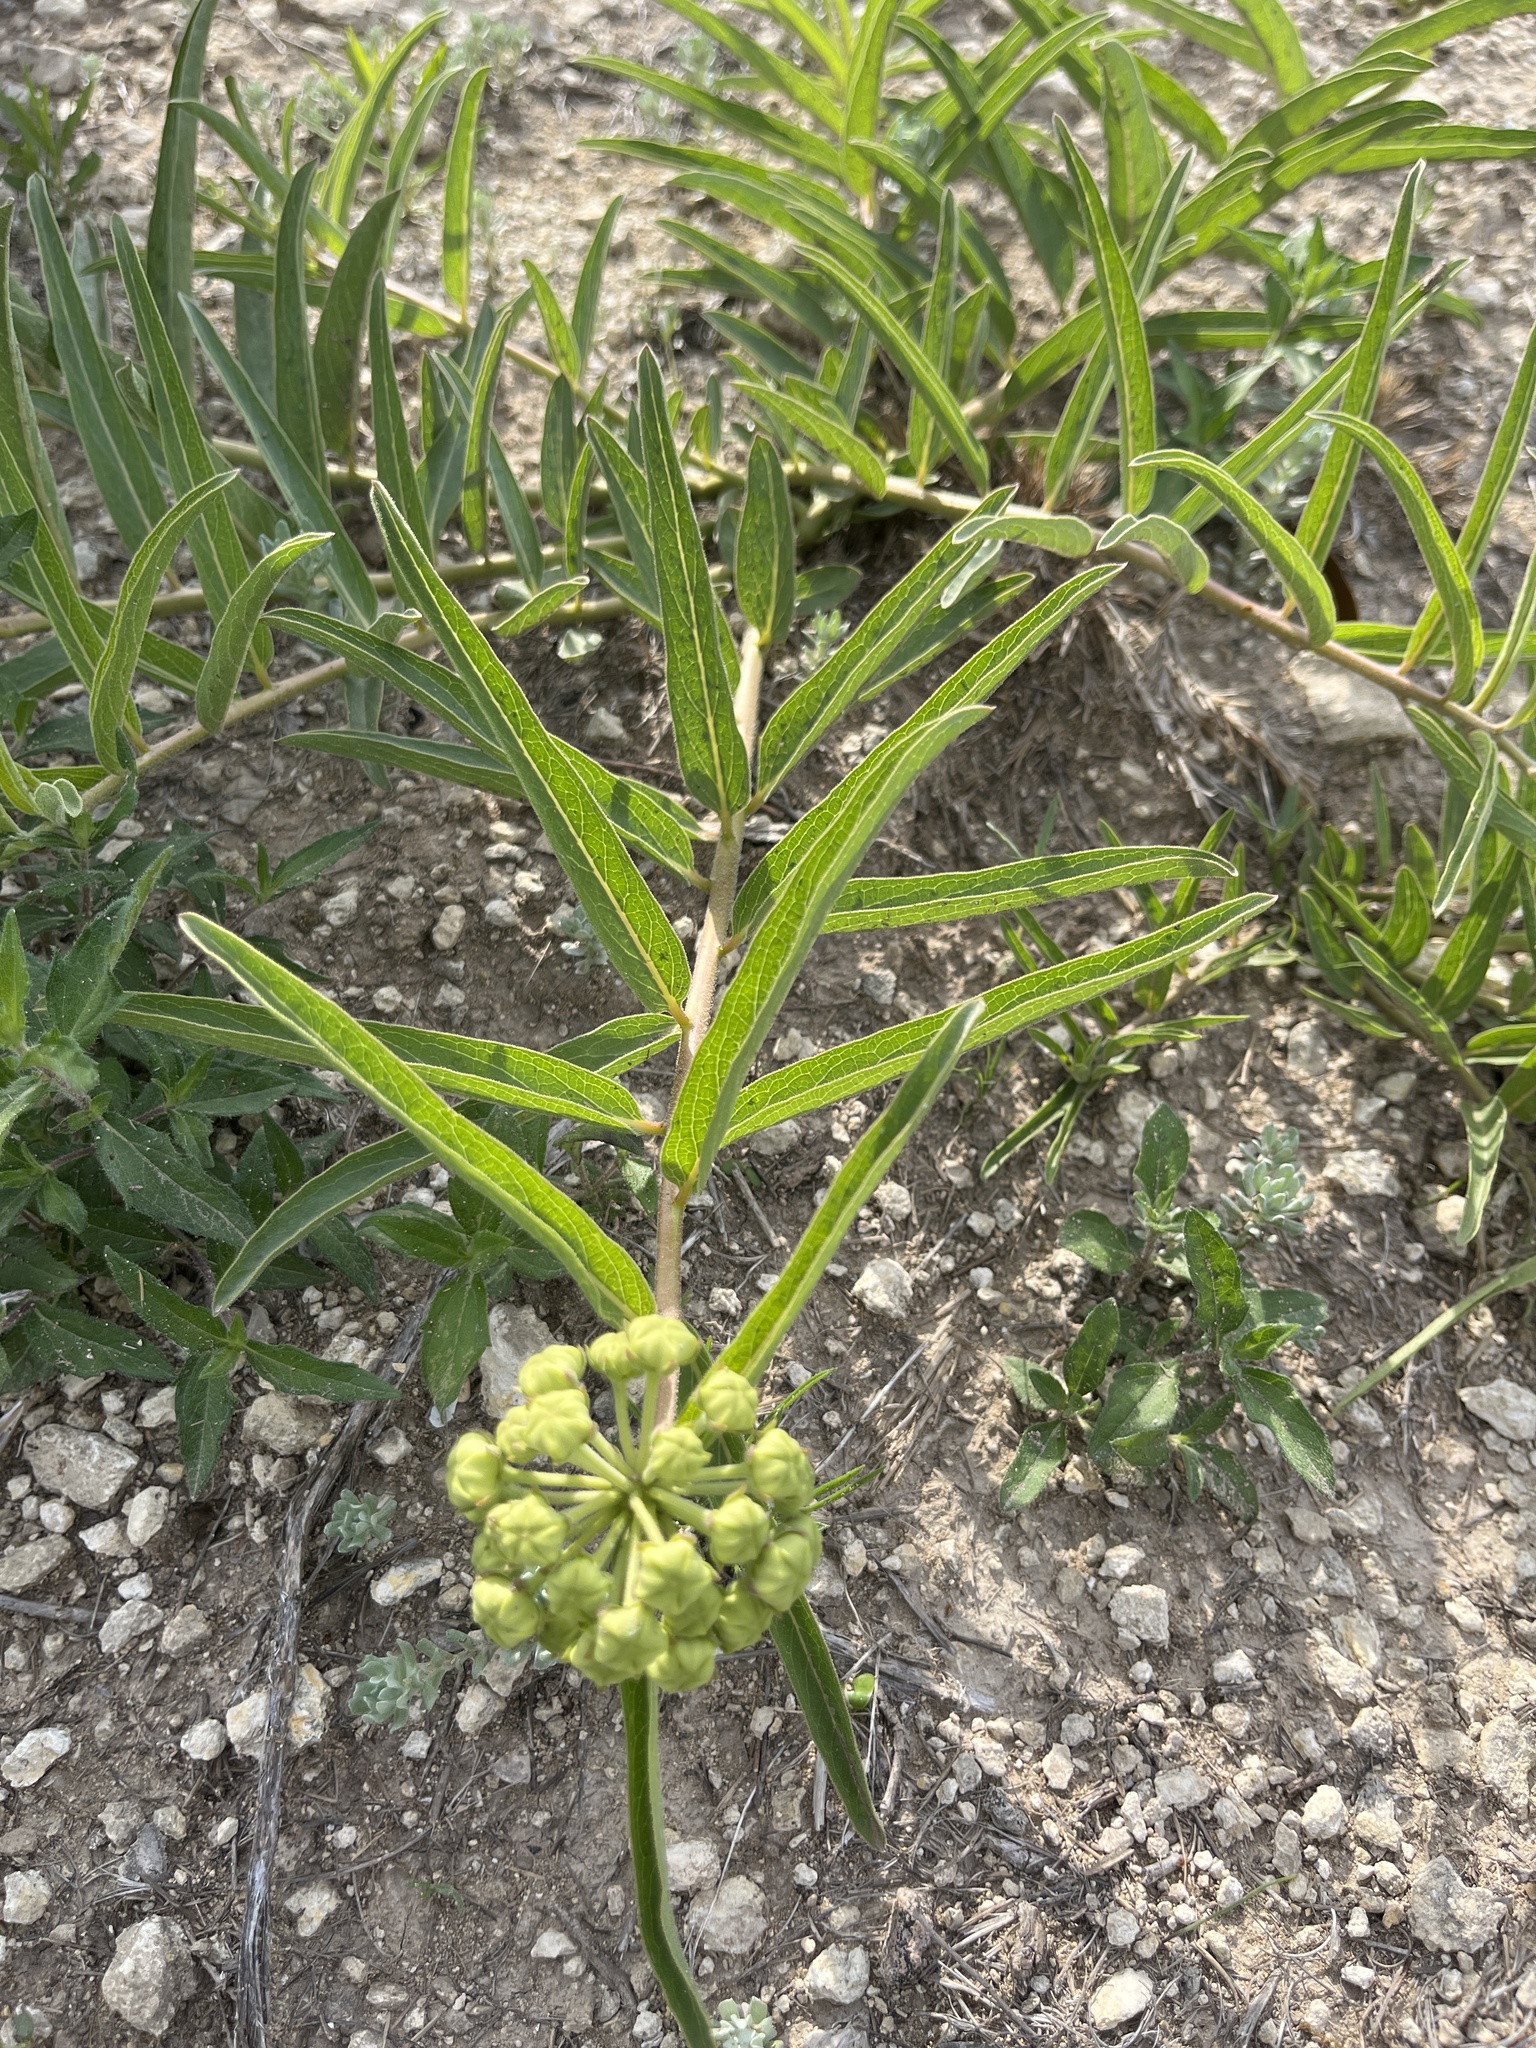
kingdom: Plantae
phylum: Tracheophyta
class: Magnoliopsida
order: Gentianales
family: Apocynaceae
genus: Asclepias
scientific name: Asclepias asperula
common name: Antelope horns
